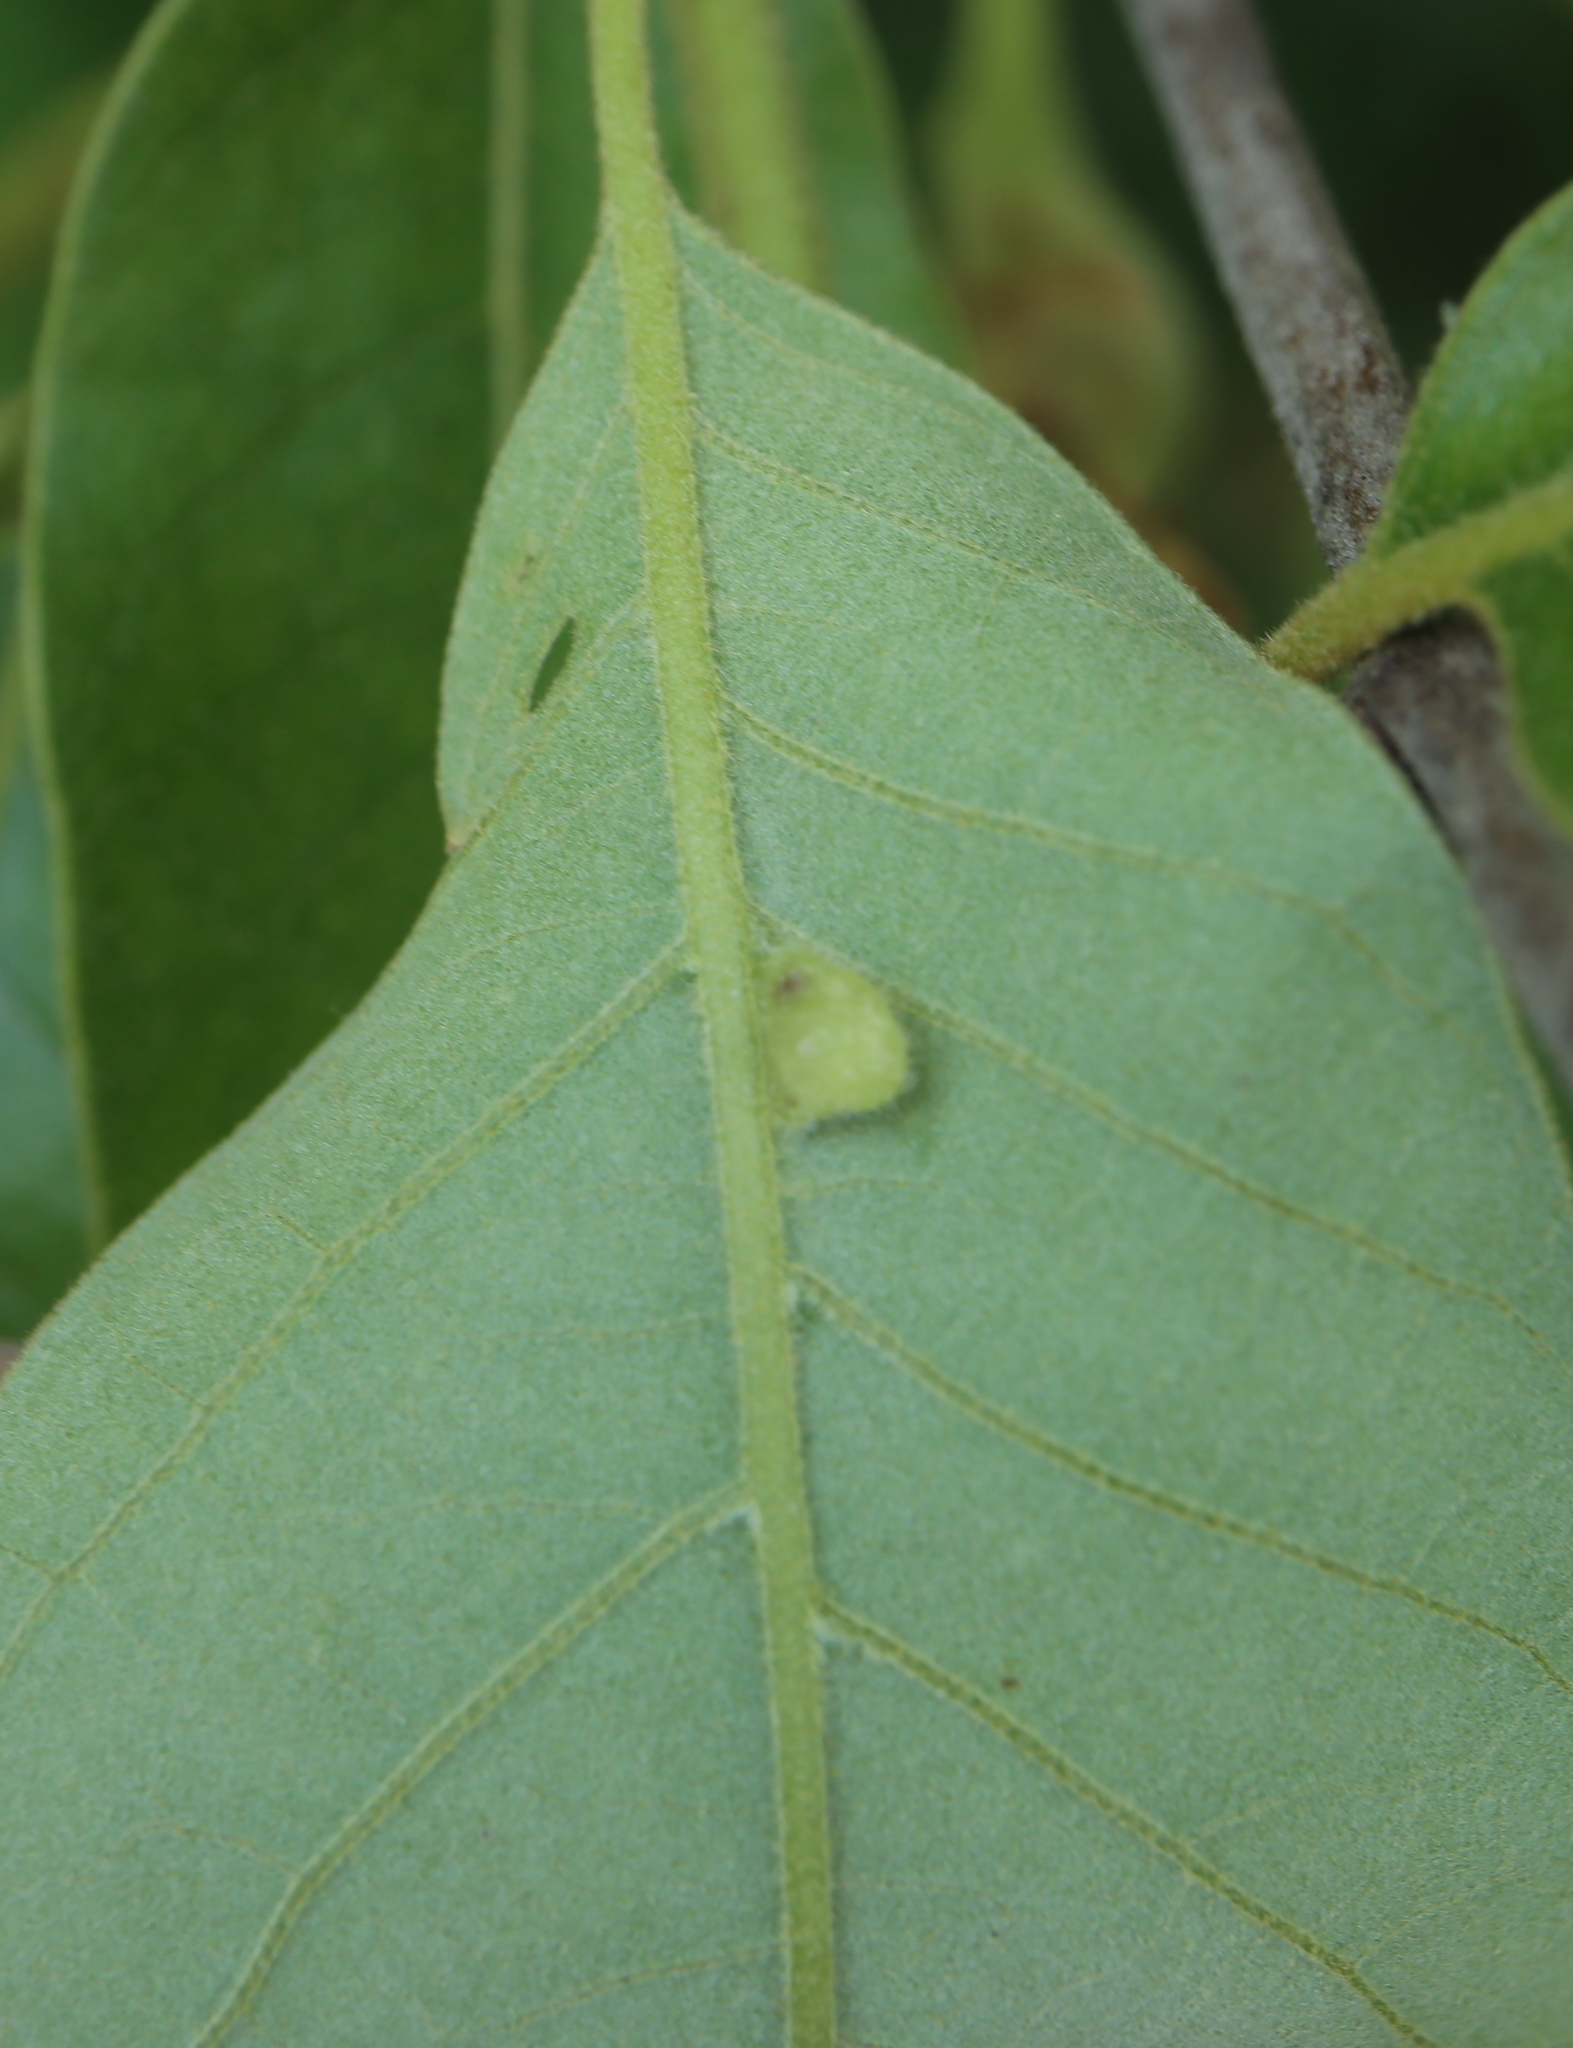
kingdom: Animalia
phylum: Arthropoda
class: Insecta
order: Diptera
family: Cecidomyiidae
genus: Macrodiplosis
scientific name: Macrodiplosis majalis
